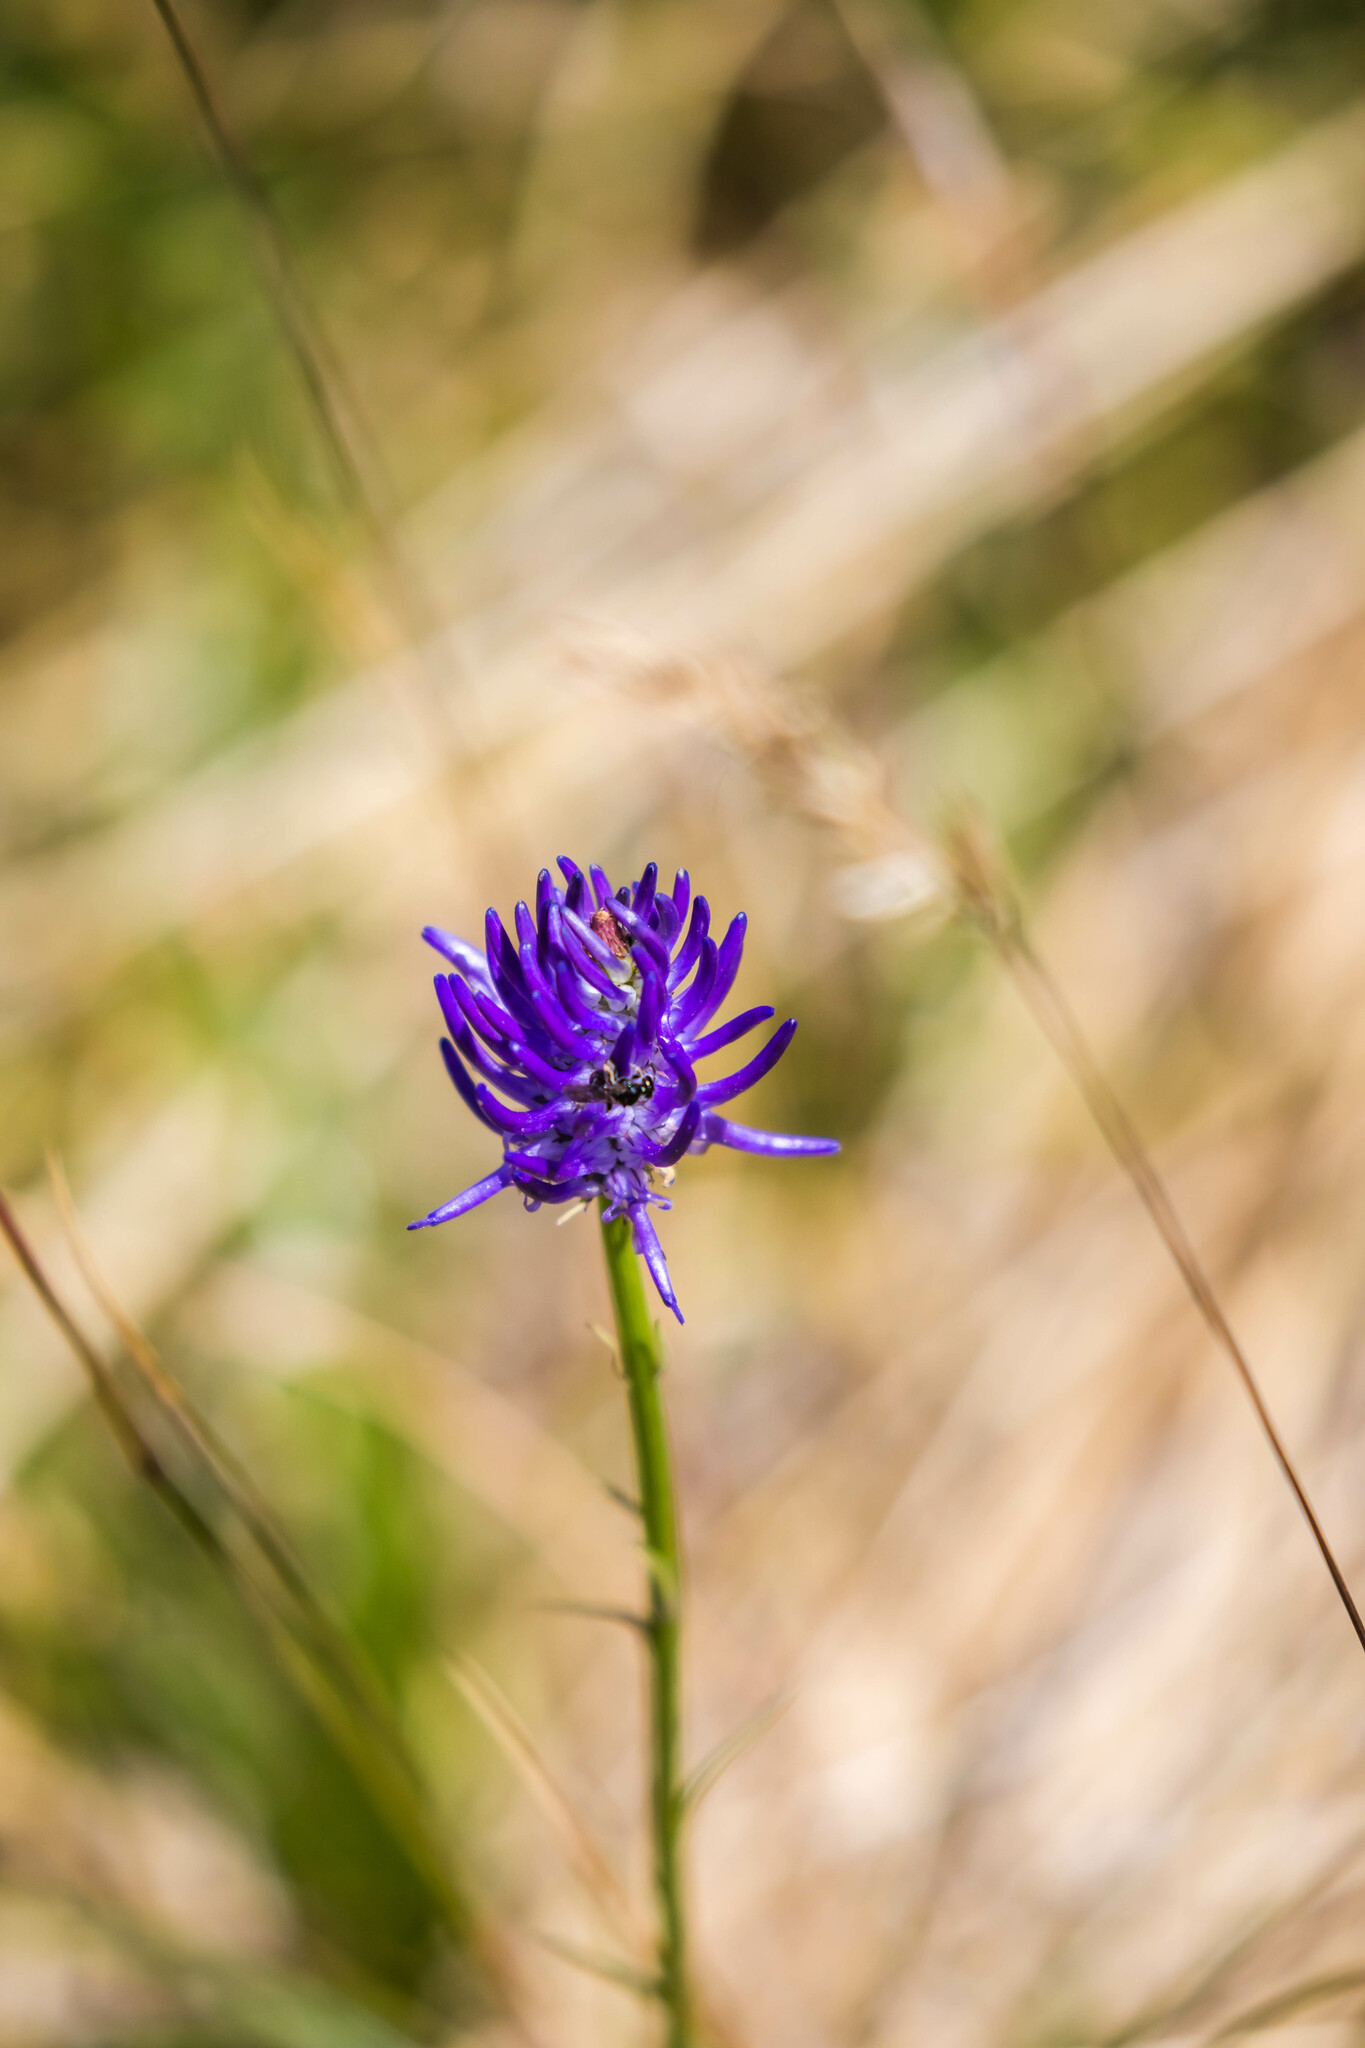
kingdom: Plantae
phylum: Tracheophyta
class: Magnoliopsida
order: Asterales
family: Campanulaceae
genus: Phyteuma
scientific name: Phyteuma
